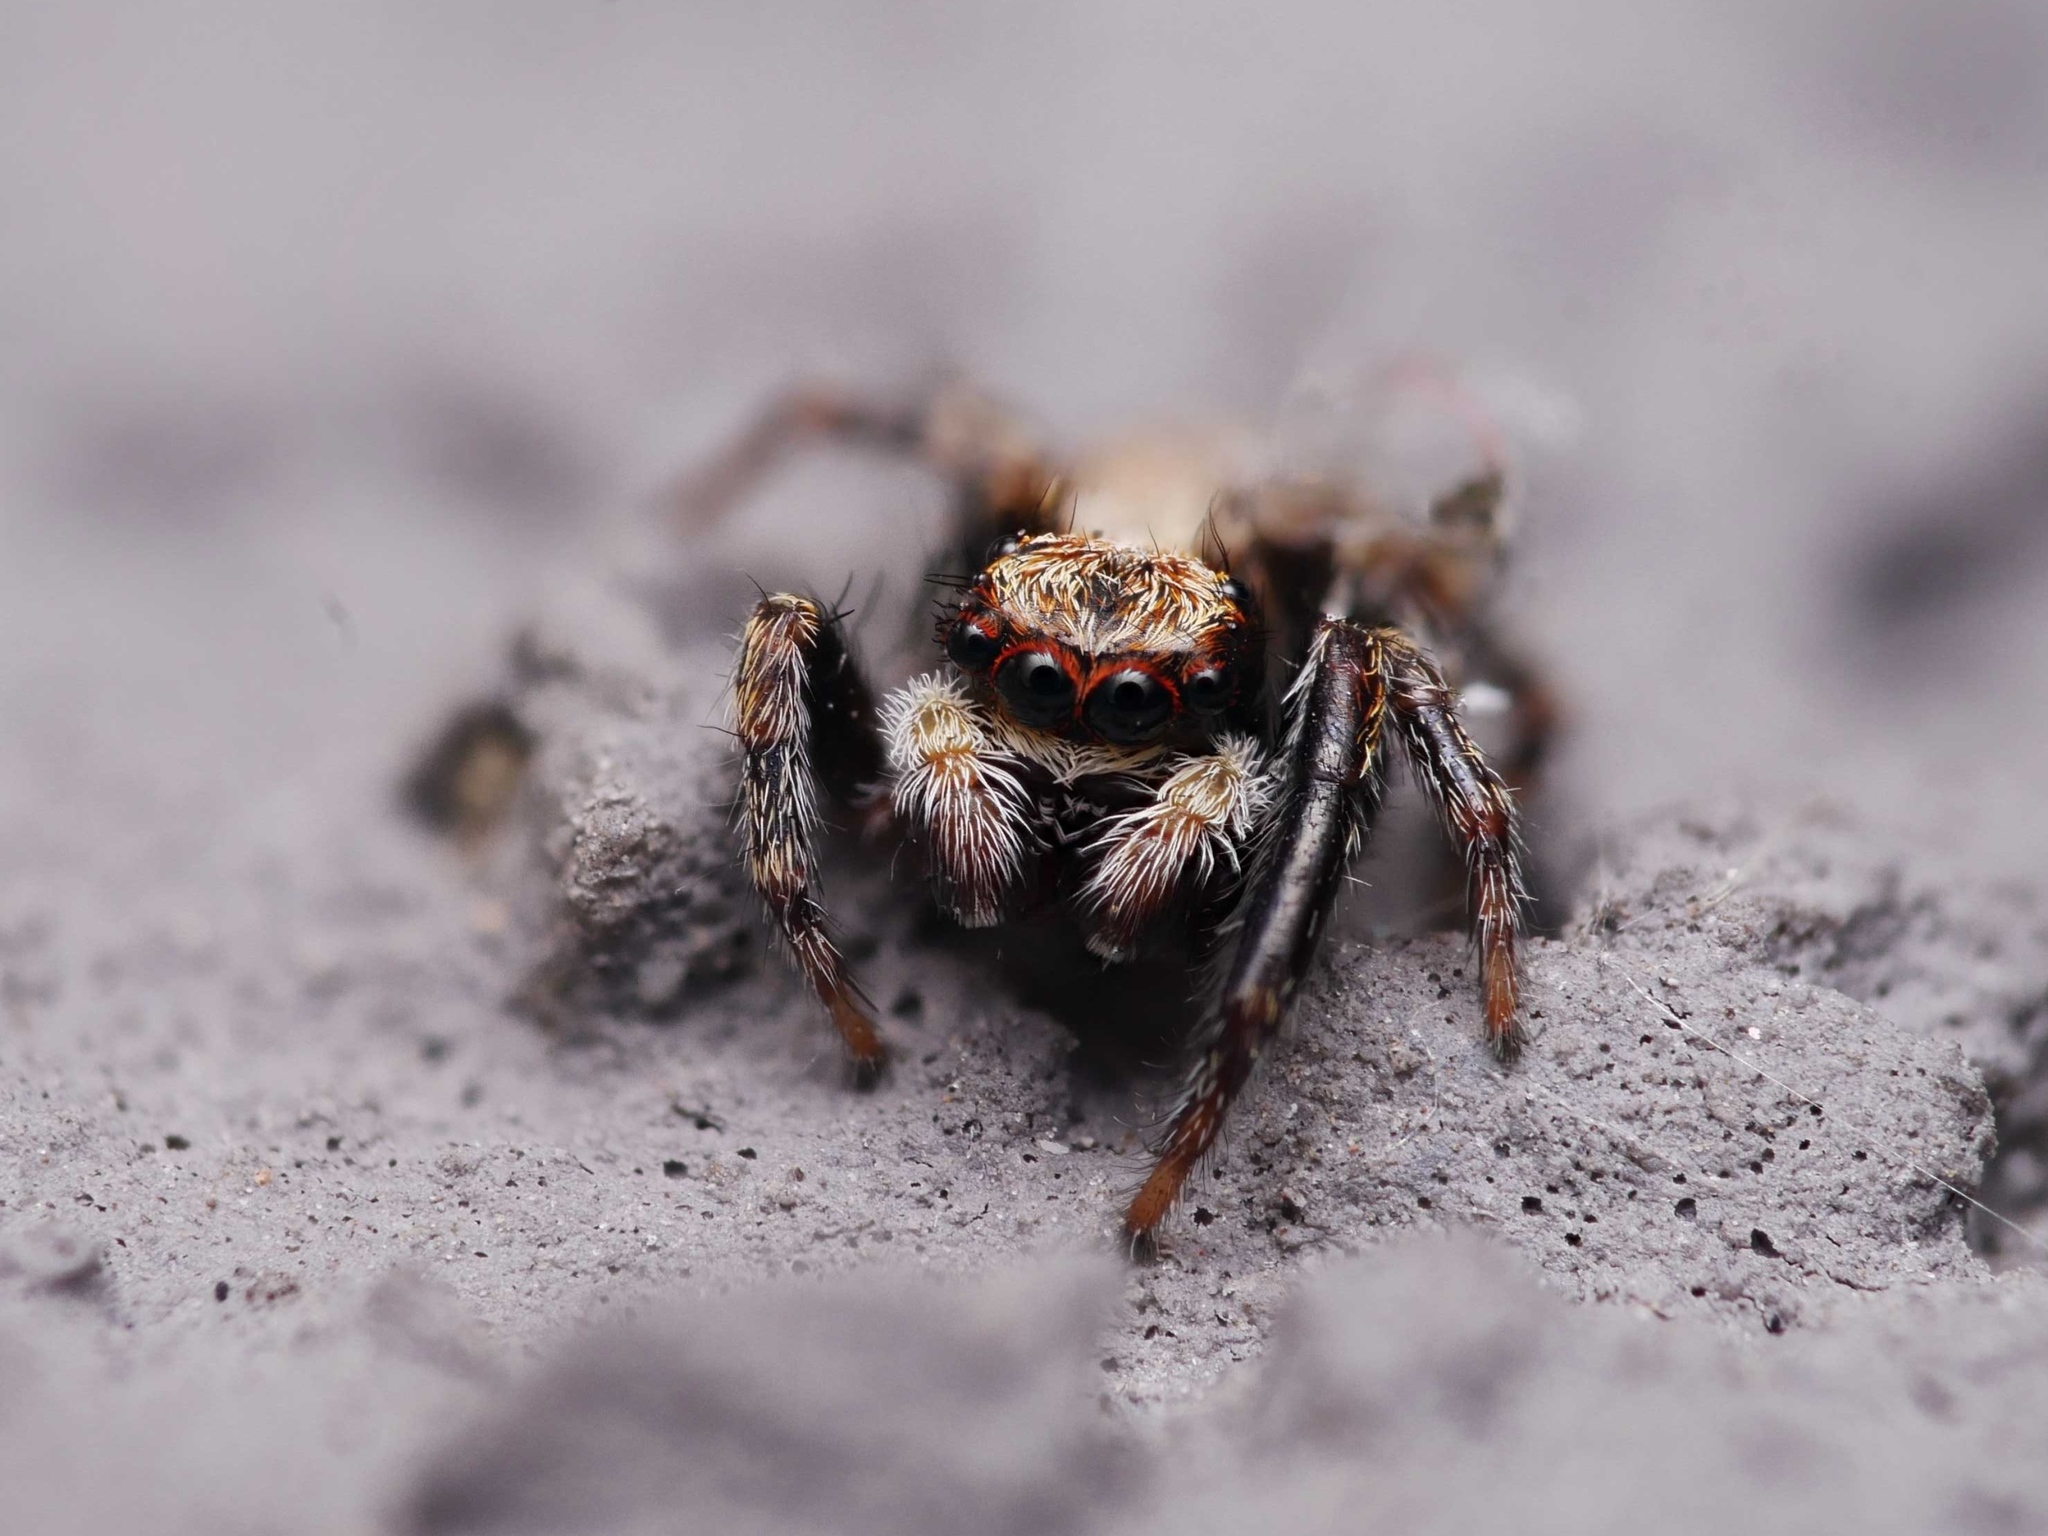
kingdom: Animalia
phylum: Arthropoda
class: Arachnida
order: Araneae
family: Salticidae
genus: Pseudeuophrys
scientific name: Pseudeuophrys lanigera
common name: Jumping spider
